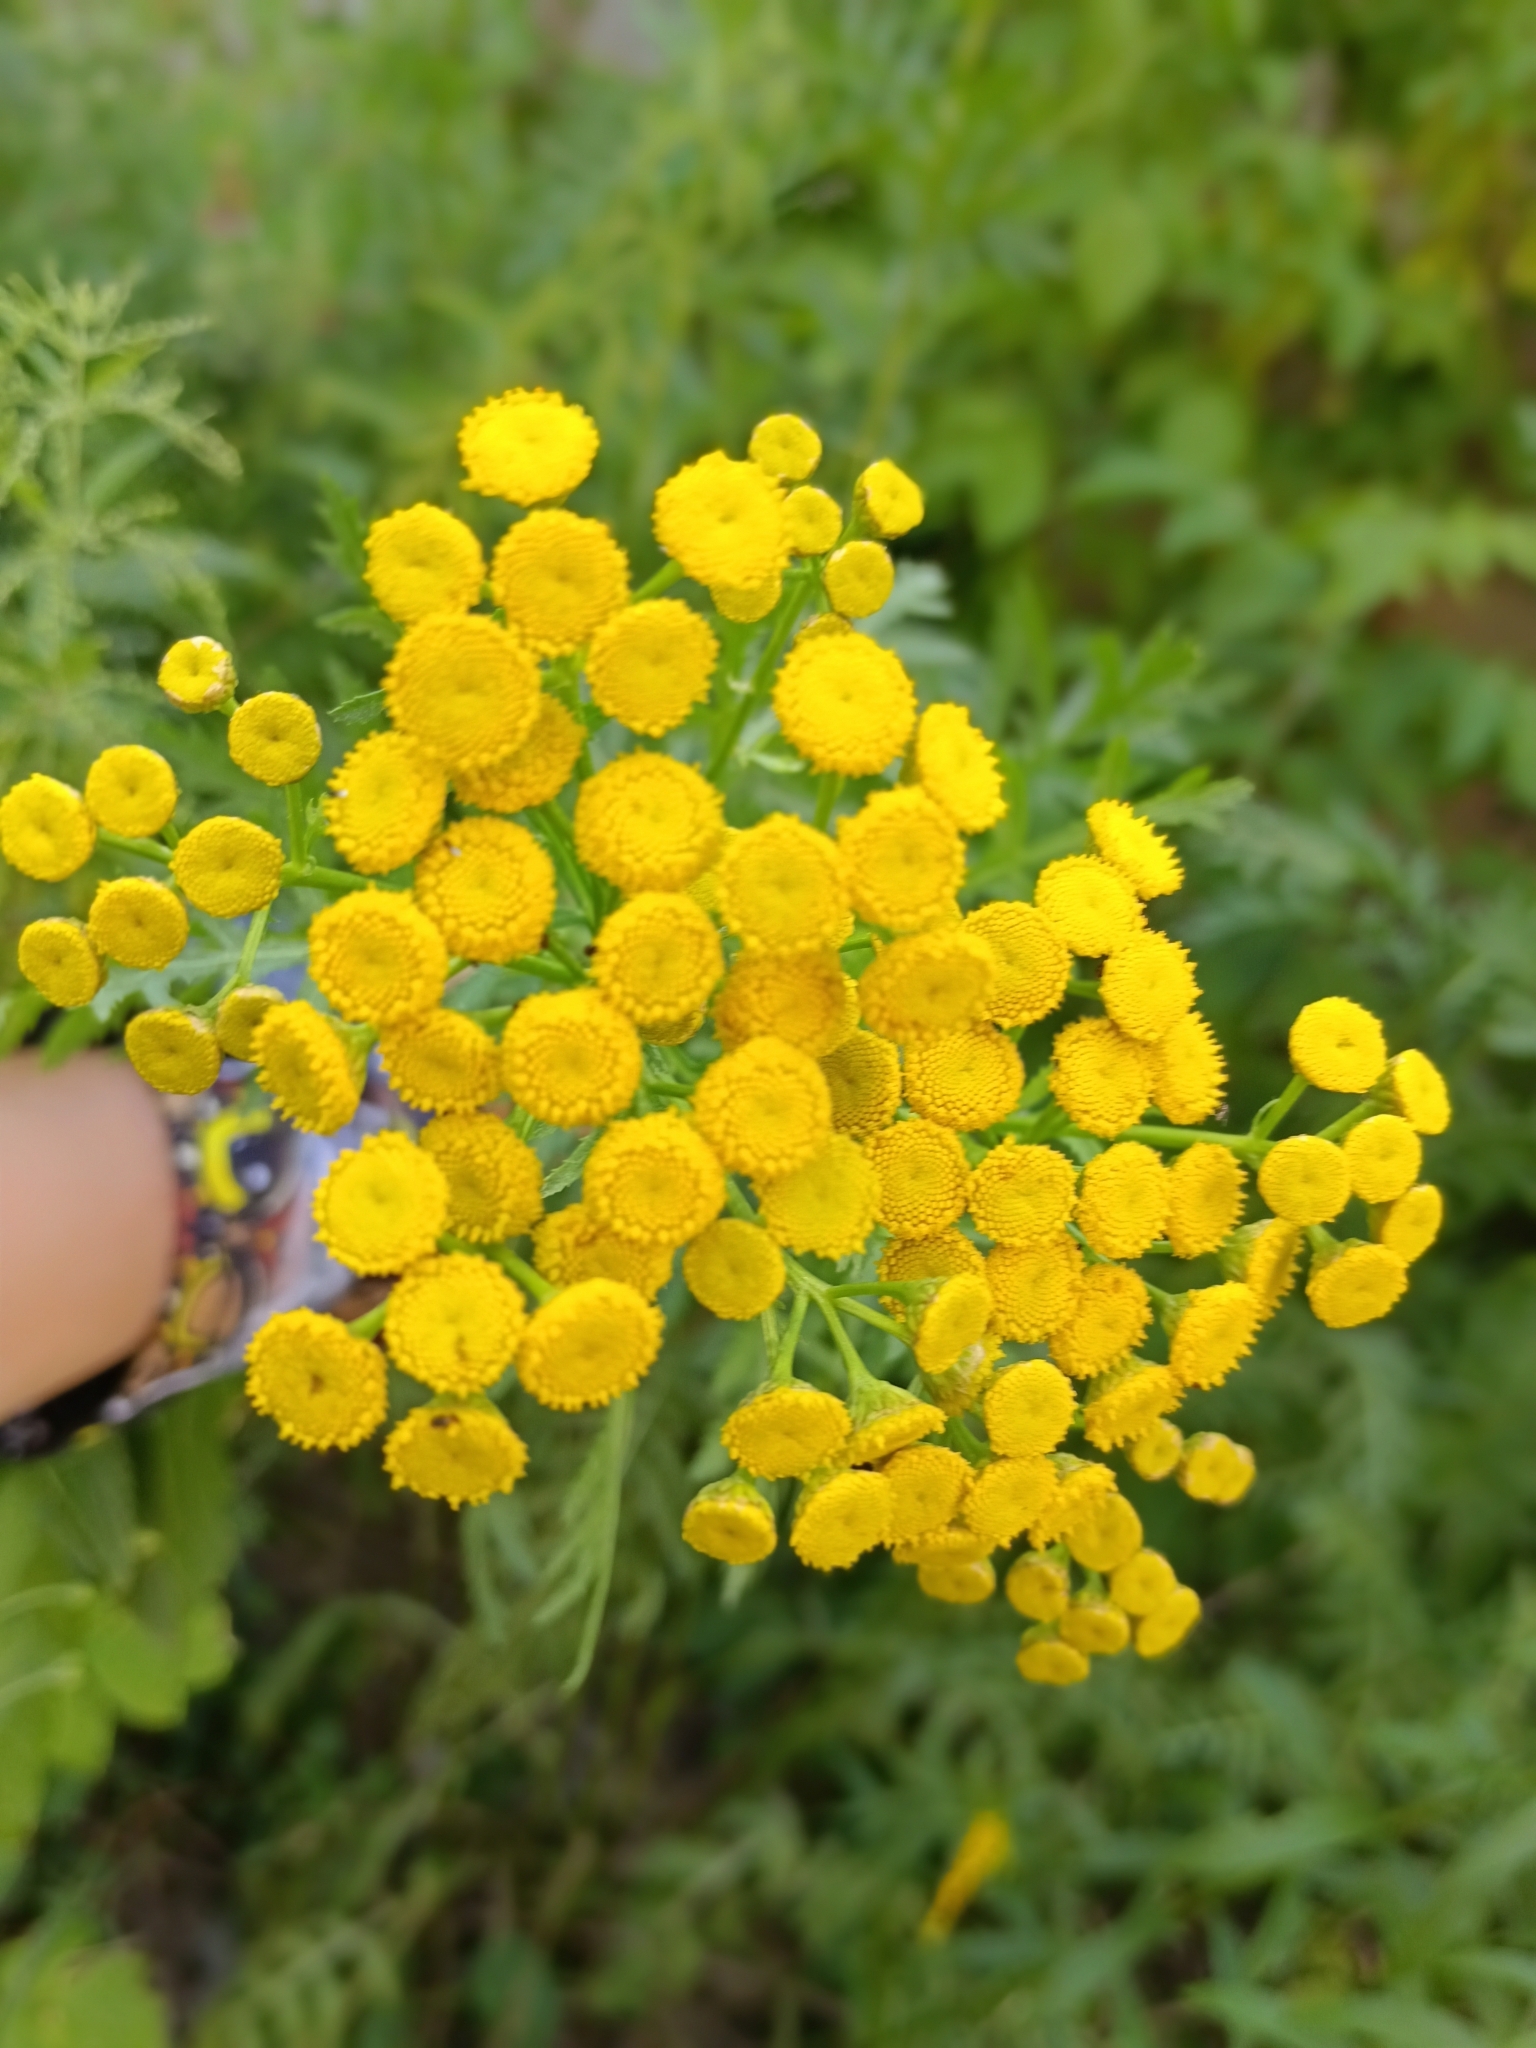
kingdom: Plantae
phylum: Tracheophyta
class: Magnoliopsida
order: Asterales
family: Asteraceae
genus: Tanacetum
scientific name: Tanacetum vulgare
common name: Common tansy
